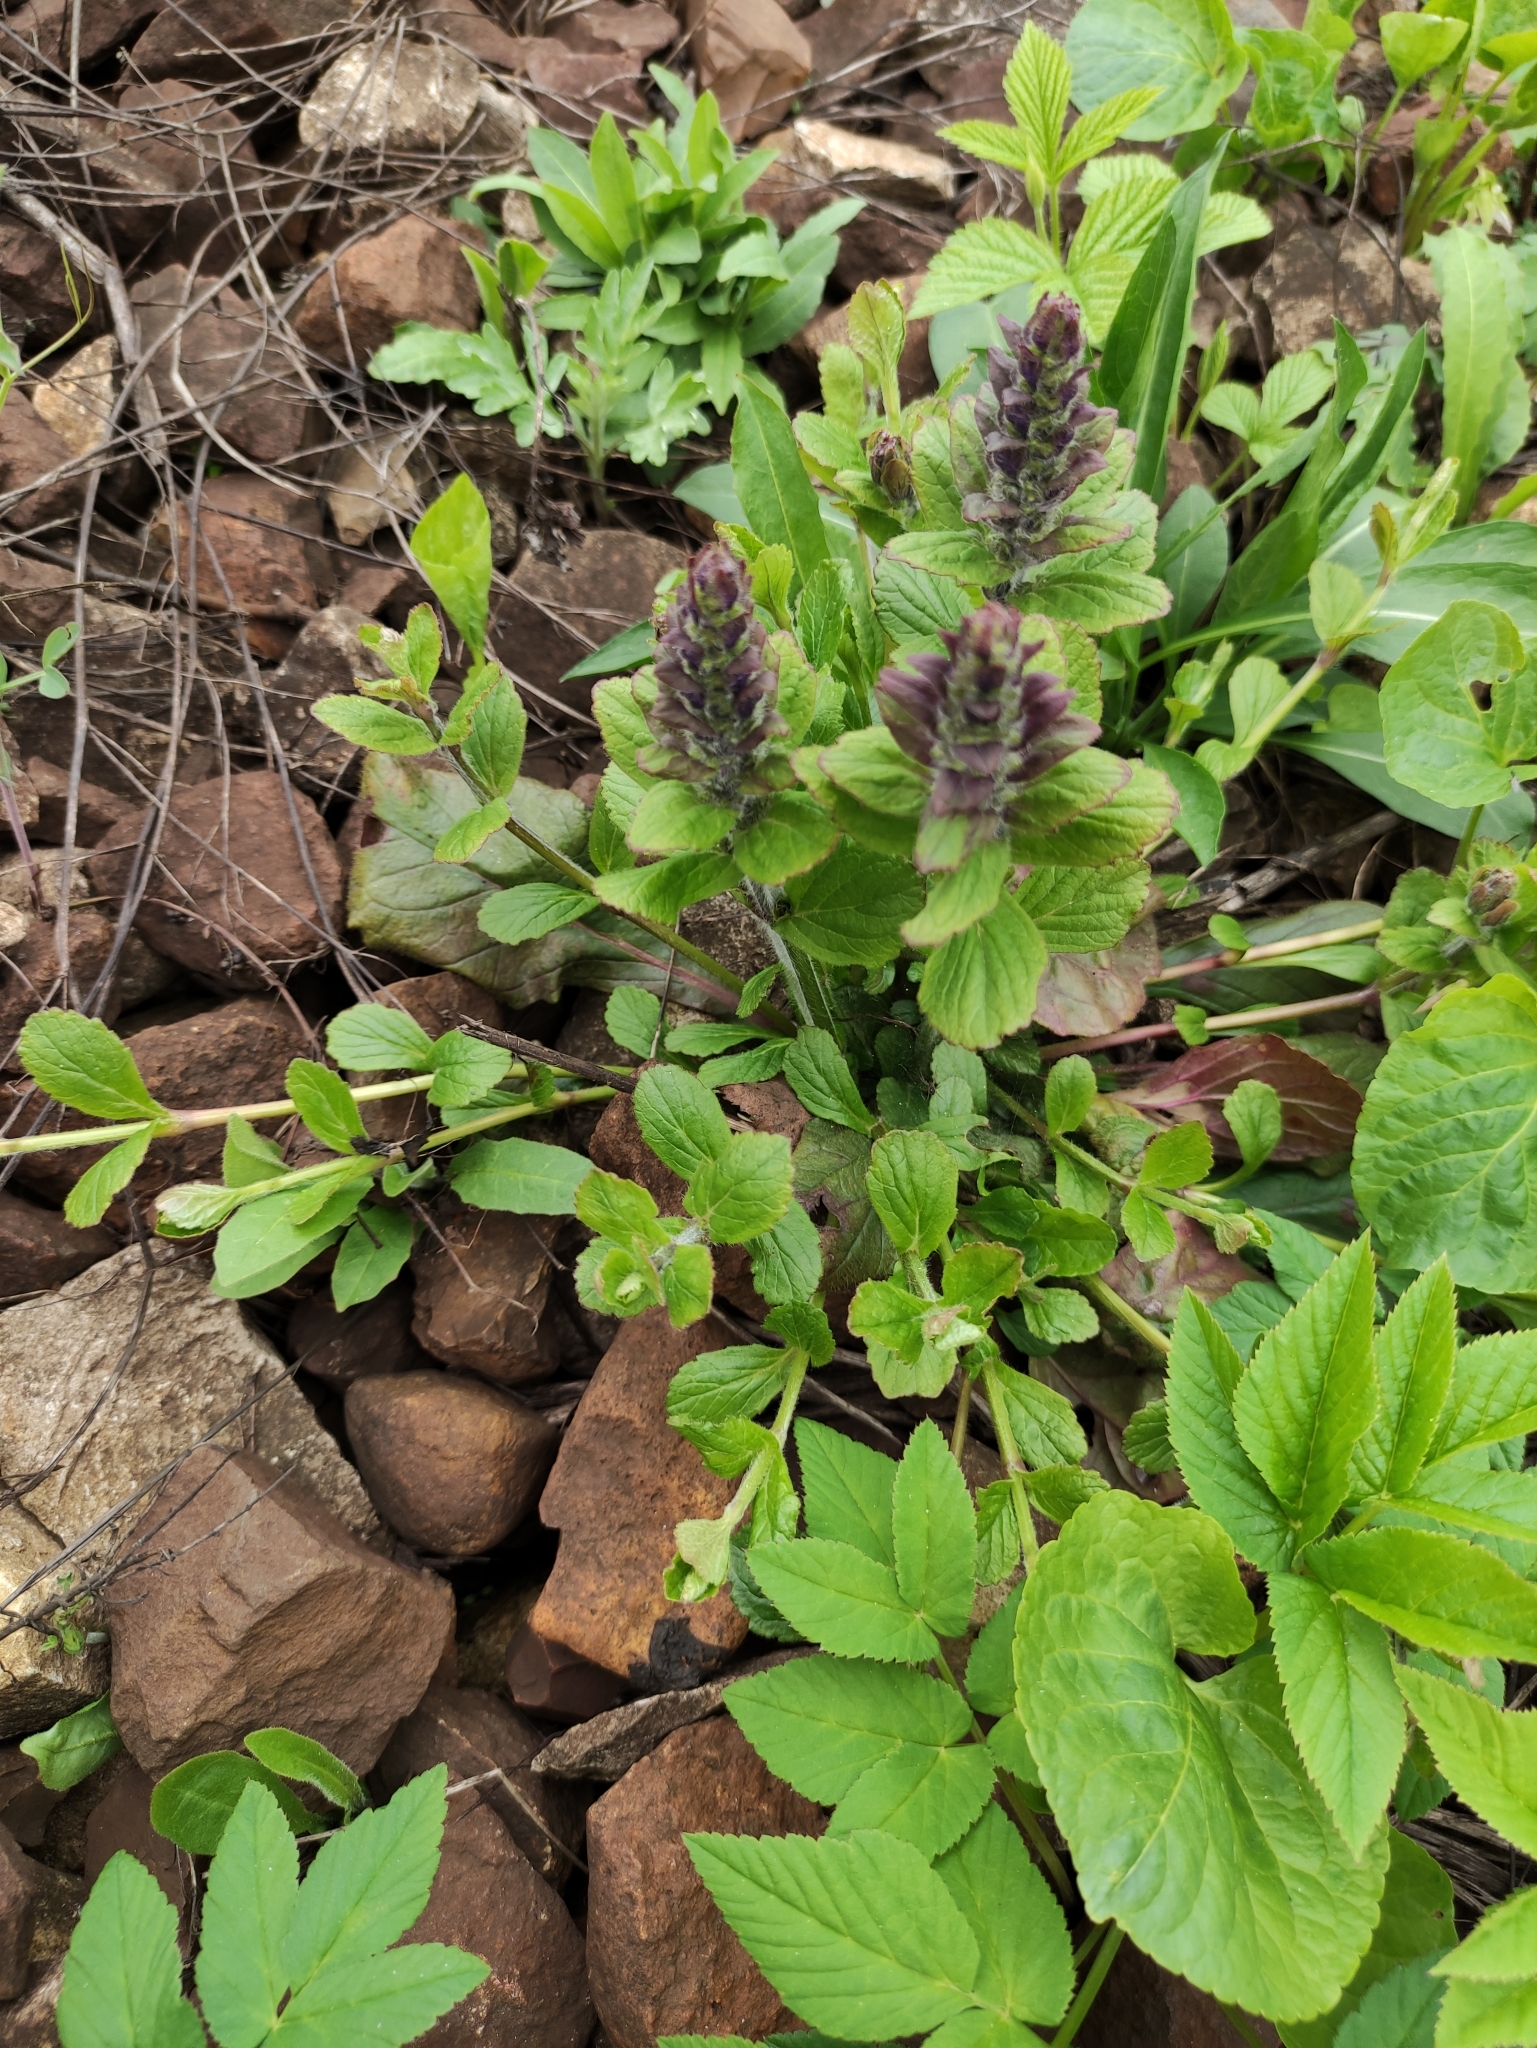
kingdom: Plantae
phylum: Tracheophyta
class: Magnoliopsida
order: Lamiales
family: Lamiaceae
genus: Ajuga
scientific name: Ajuga reptans
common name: Bugle
